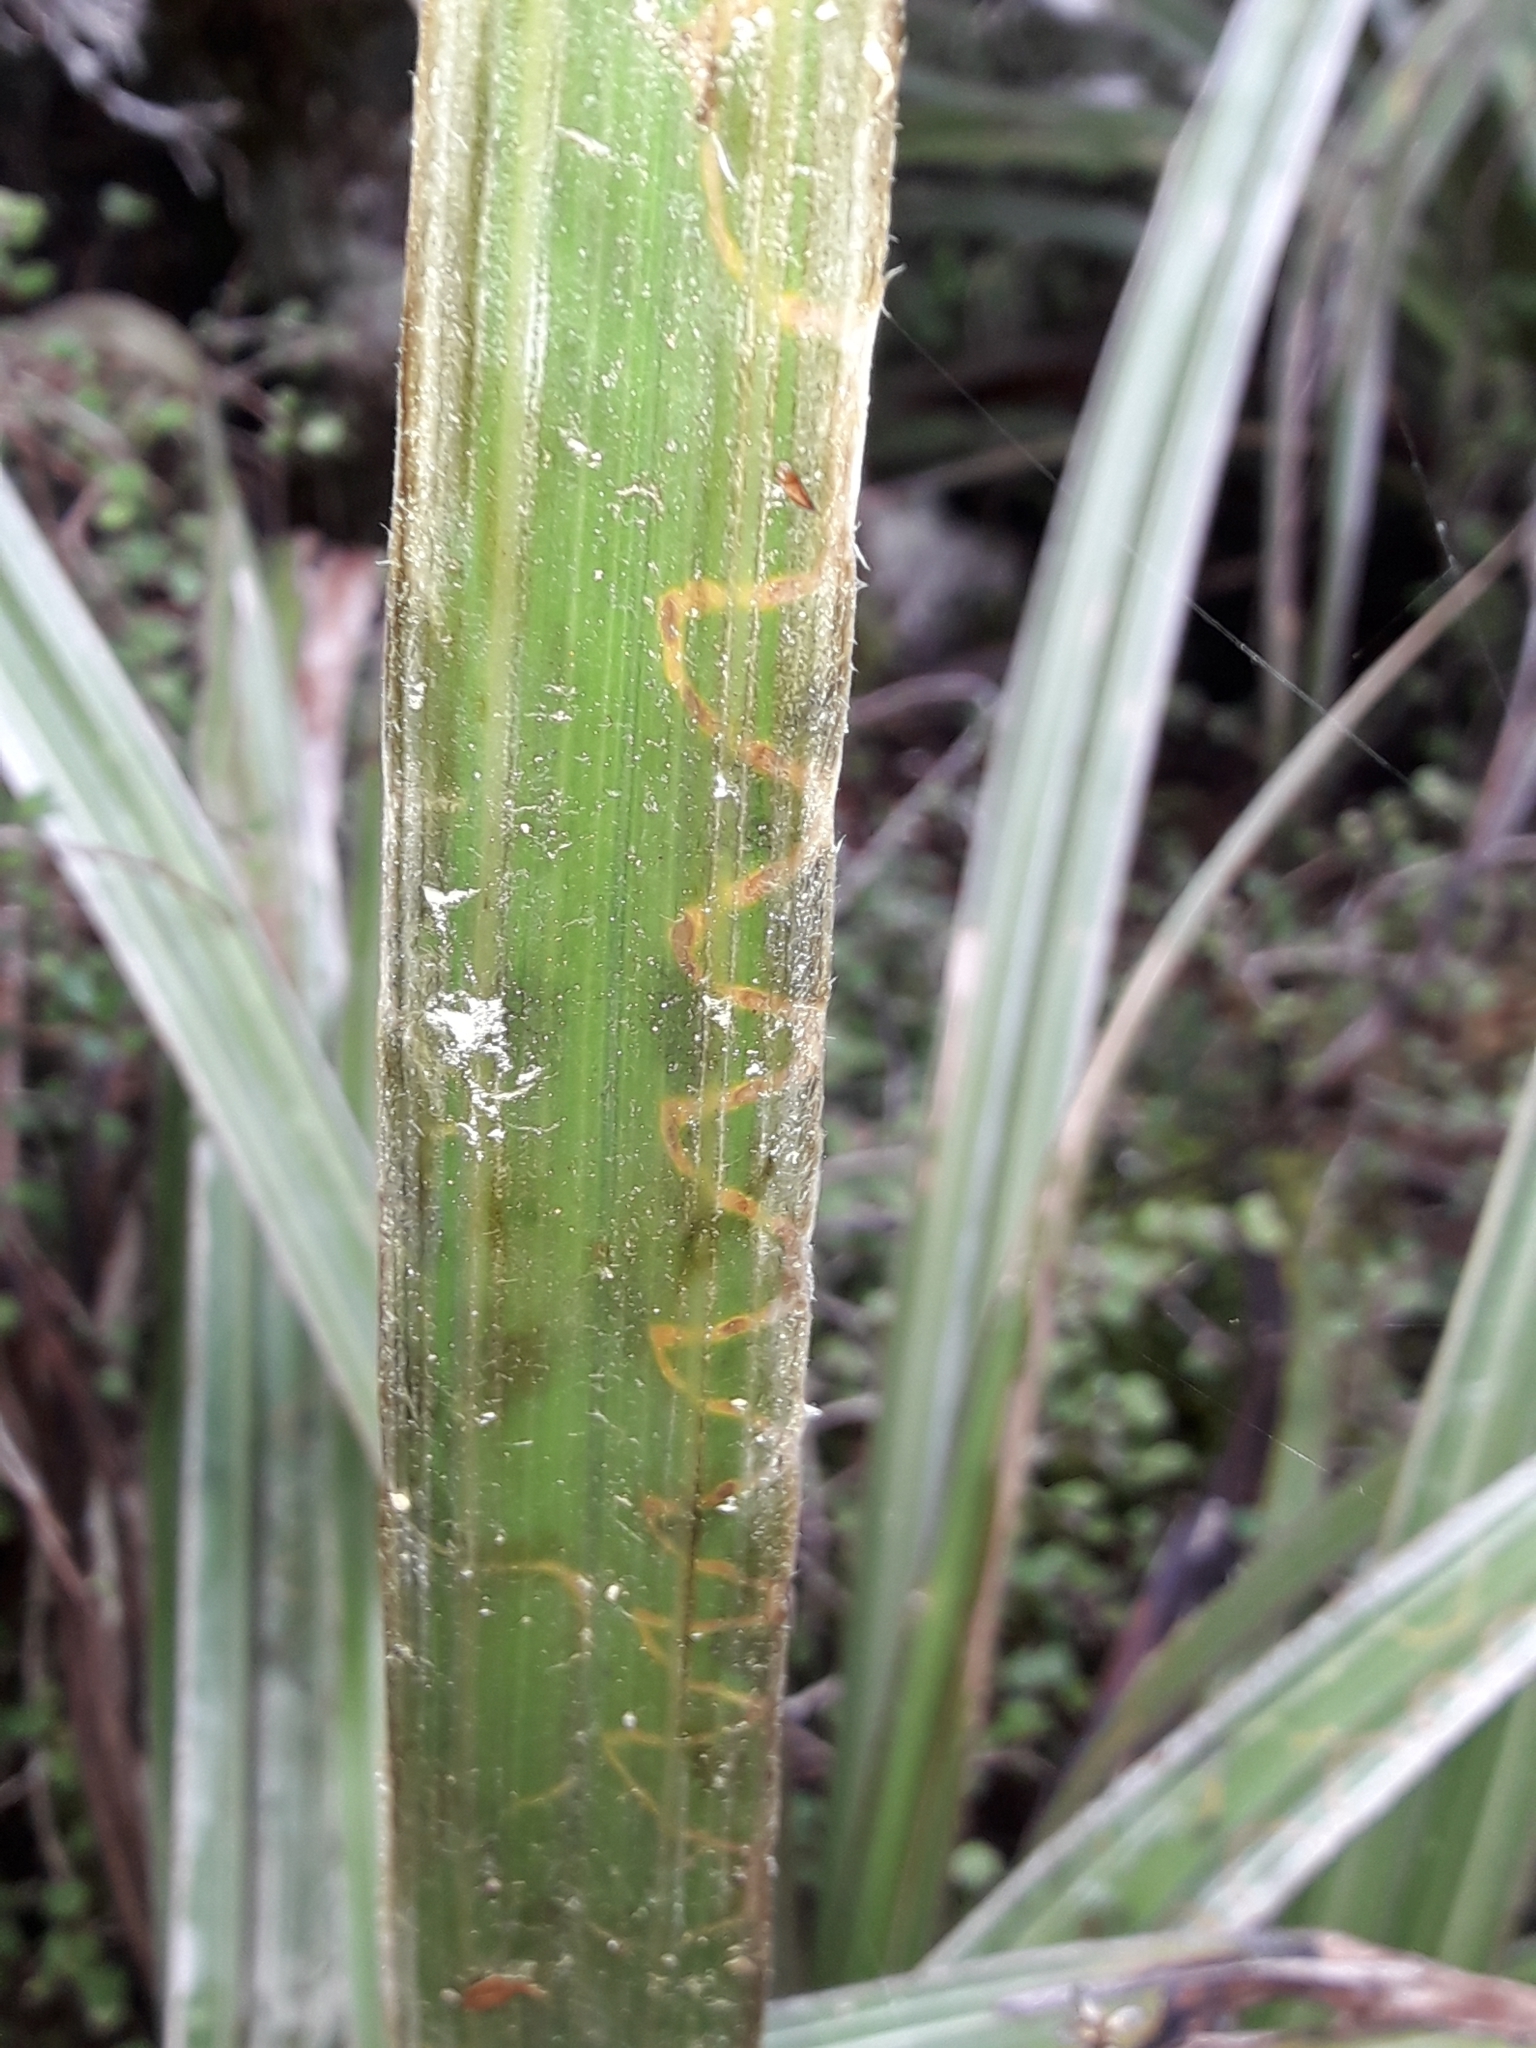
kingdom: Animalia
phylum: Arthropoda
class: Insecta
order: Lepidoptera
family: Plutellidae
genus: Charixena
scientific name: Charixena iridoxa
